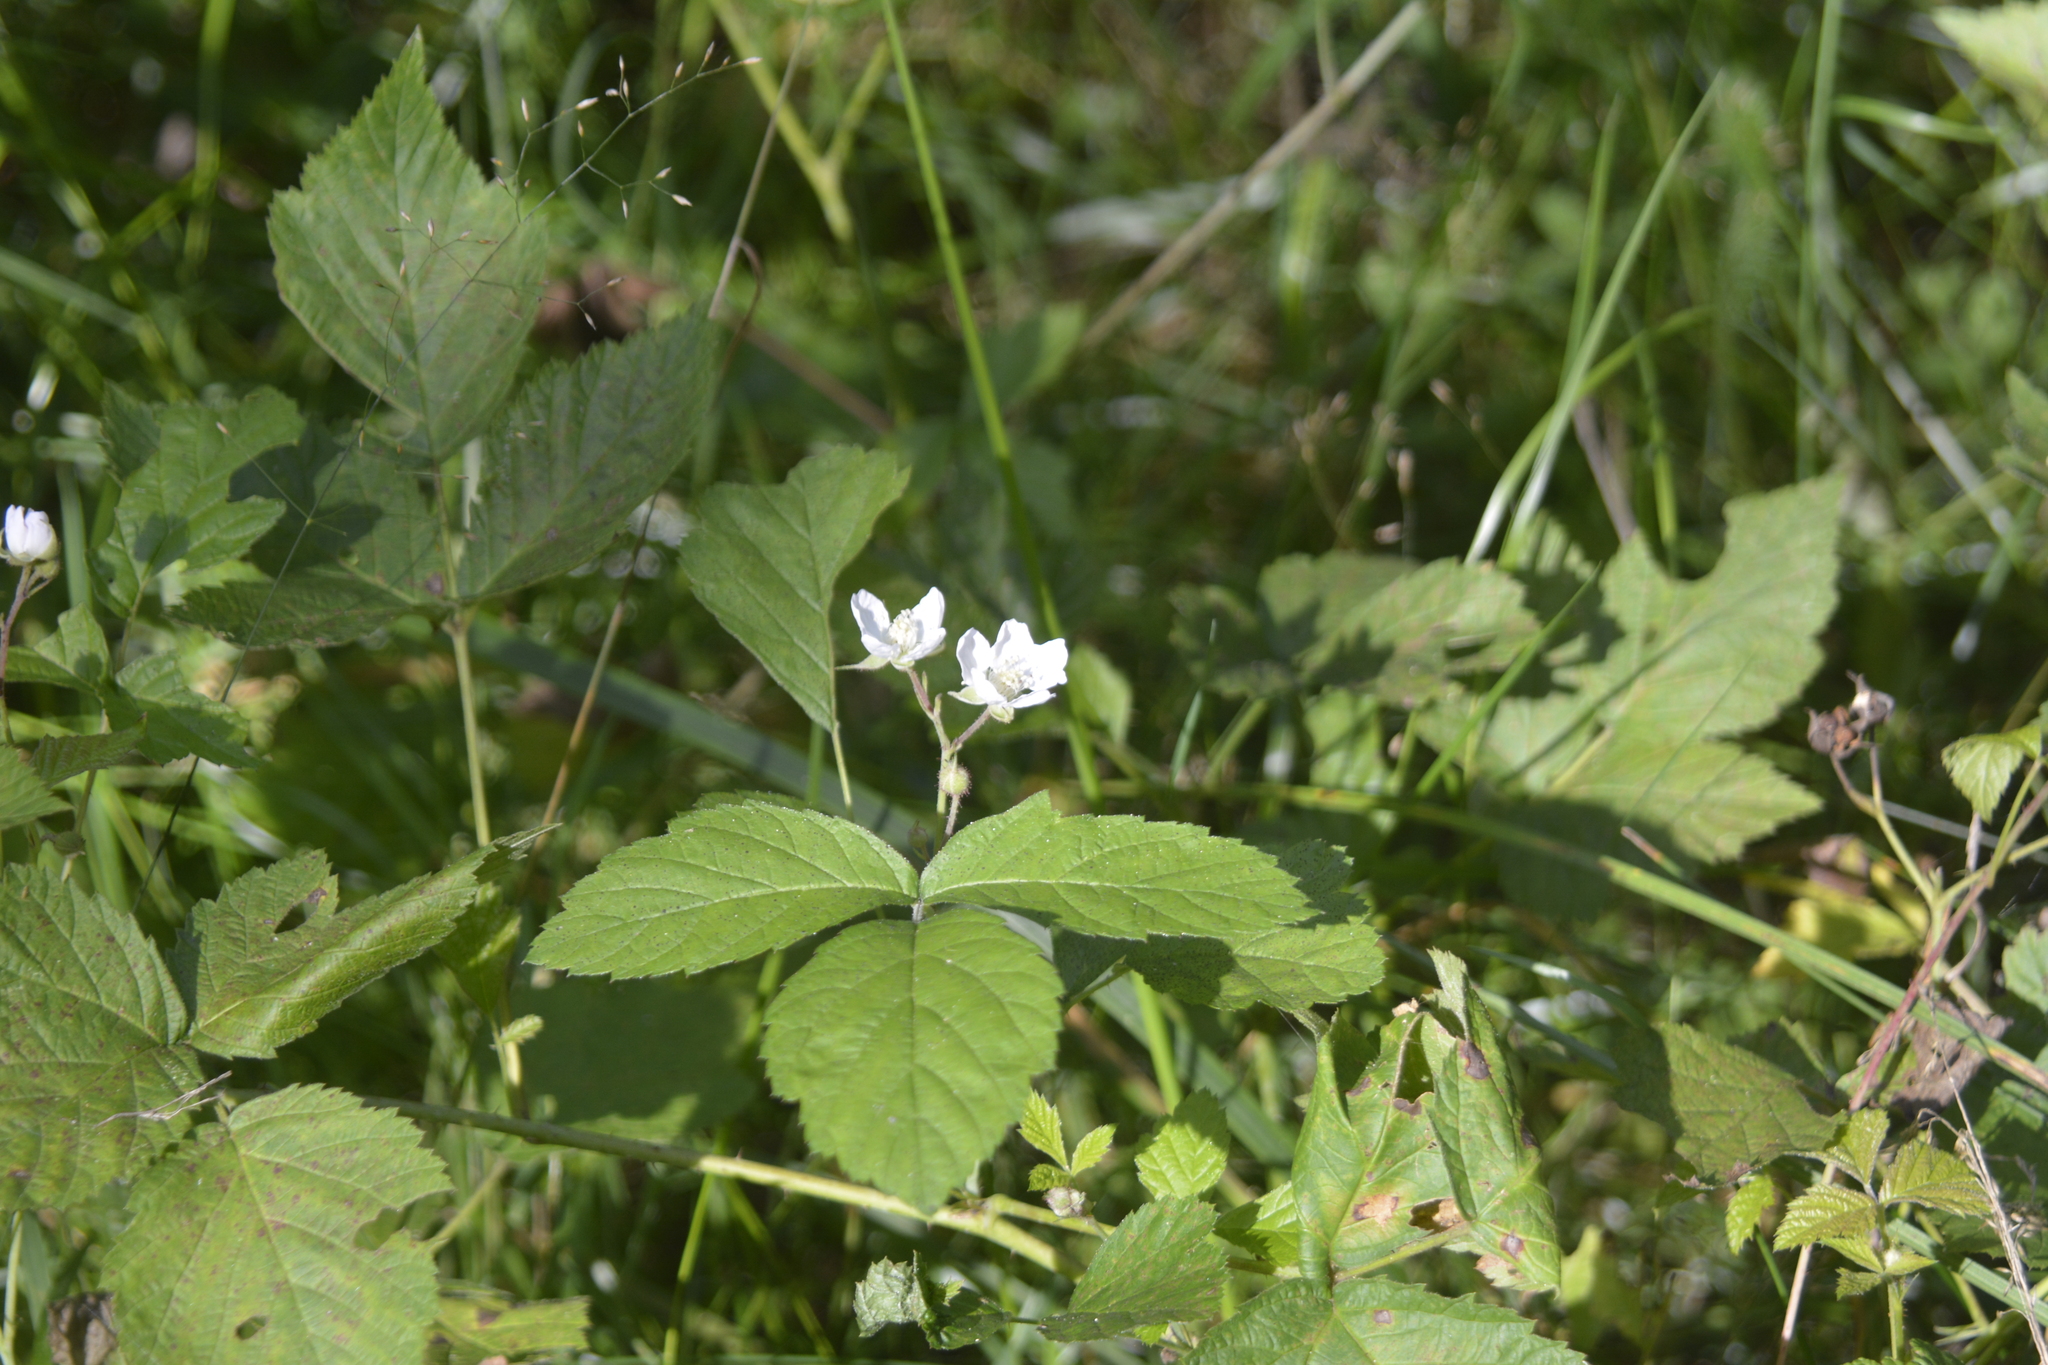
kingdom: Plantae
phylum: Tracheophyta
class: Magnoliopsida
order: Rosales
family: Rosaceae
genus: Rubus
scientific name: Rubus caesius
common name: Dewberry
